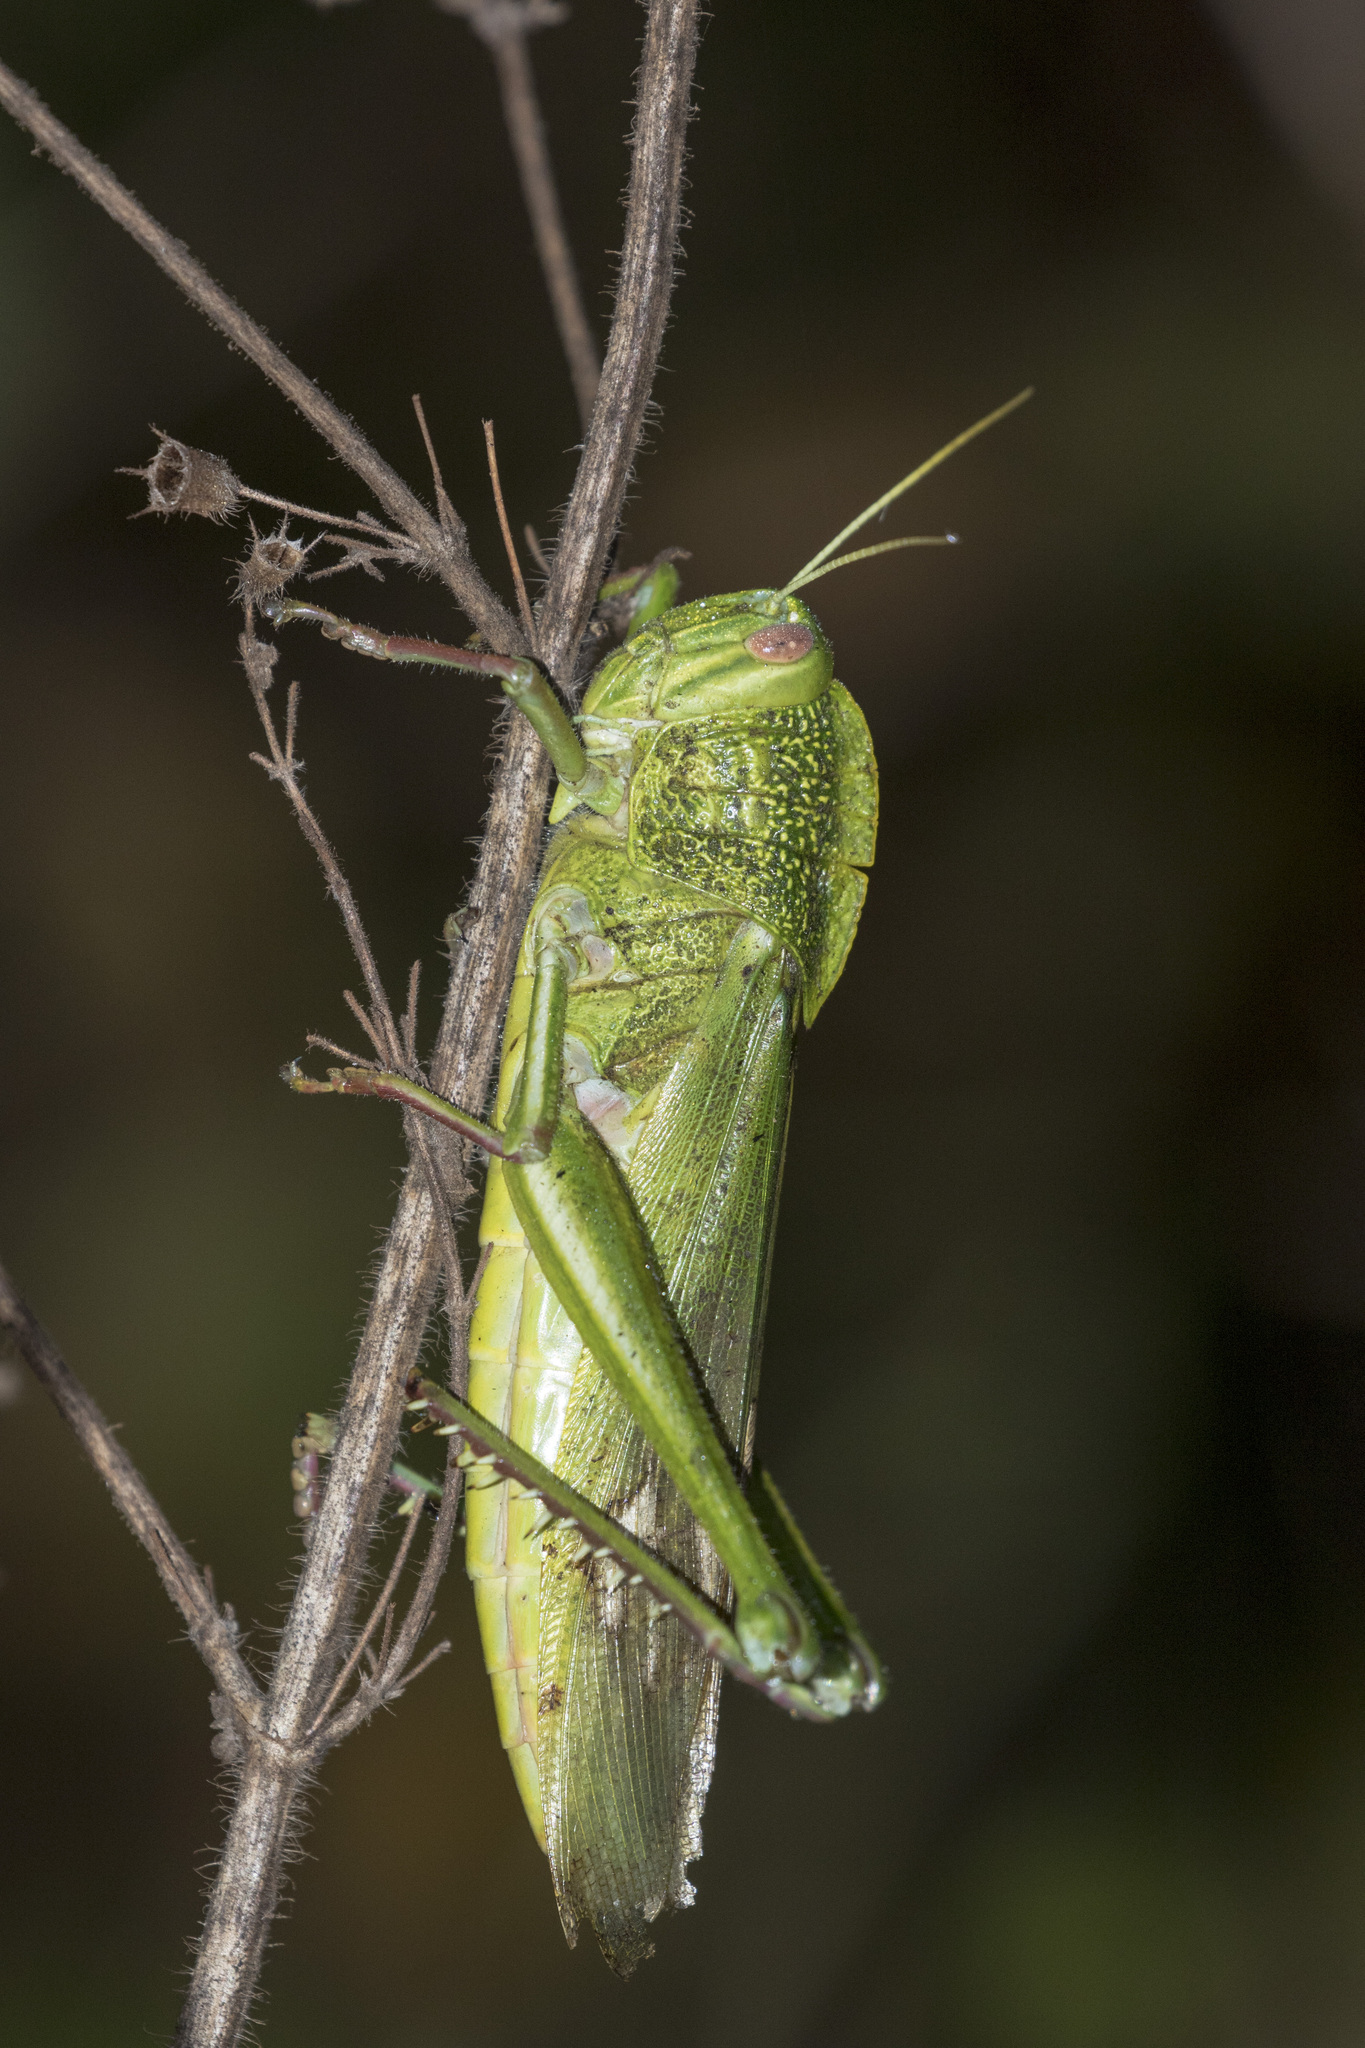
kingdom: Animalia
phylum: Arthropoda
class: Insecta
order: Orthoptera
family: Acrididae
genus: Chondracris
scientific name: Chondracris bengalensis
